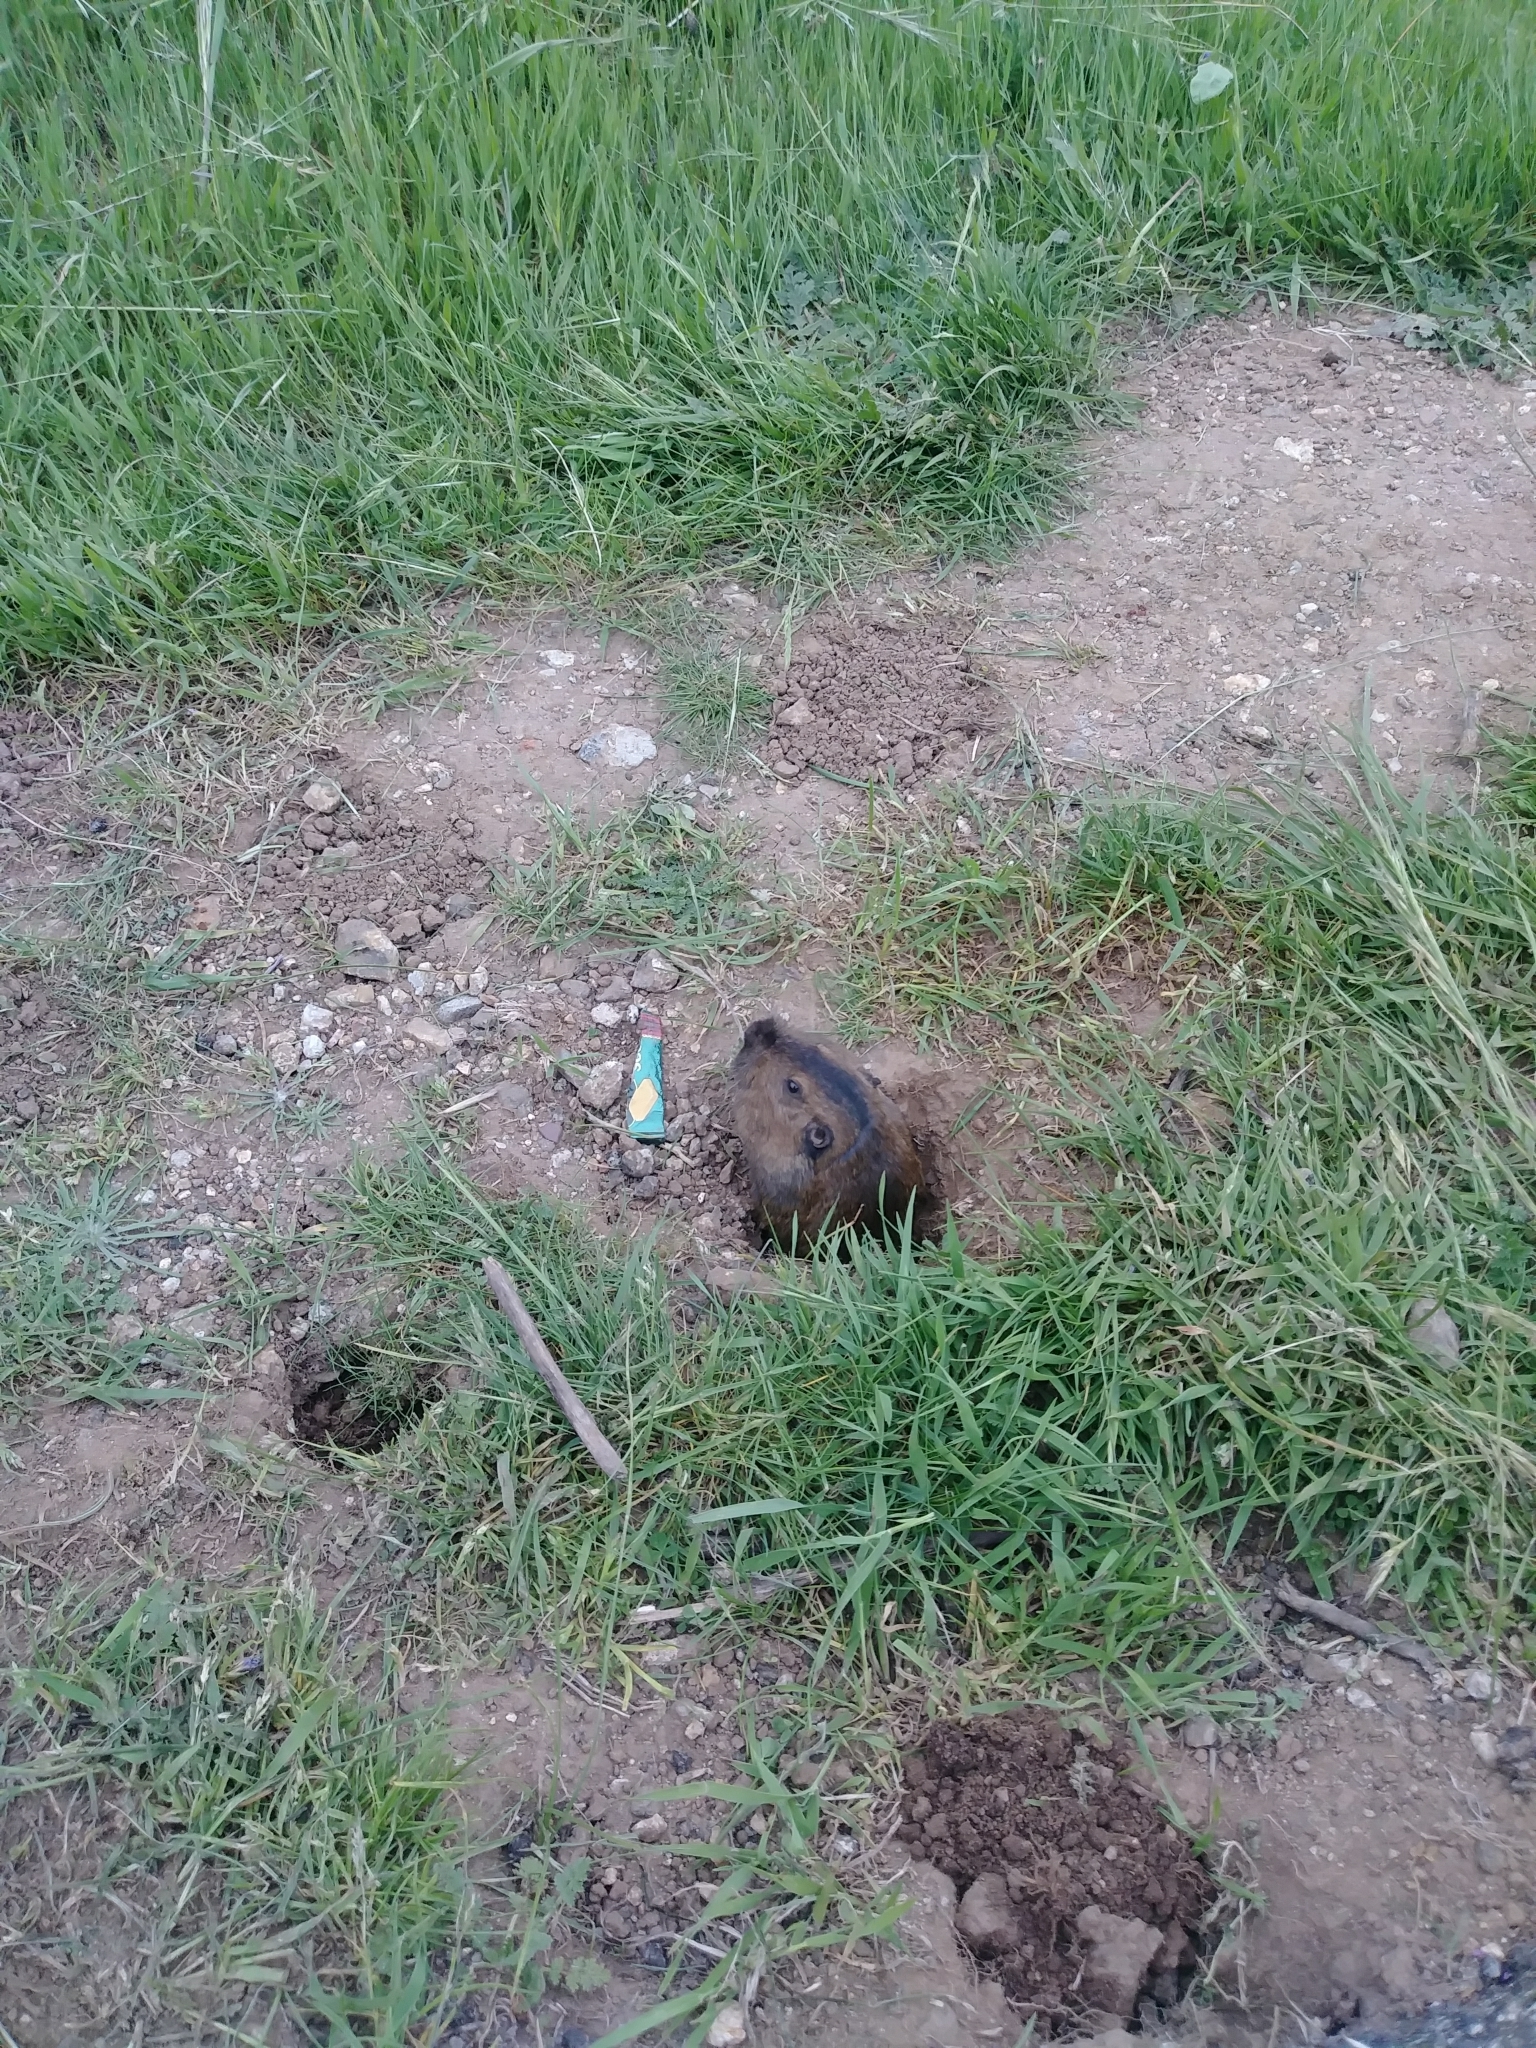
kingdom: Animalia
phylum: Chordata
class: Mammalia
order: Rodentia
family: Geomyidae
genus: Thomomys
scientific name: Thomomys bottae
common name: Botta's pocket gopher
